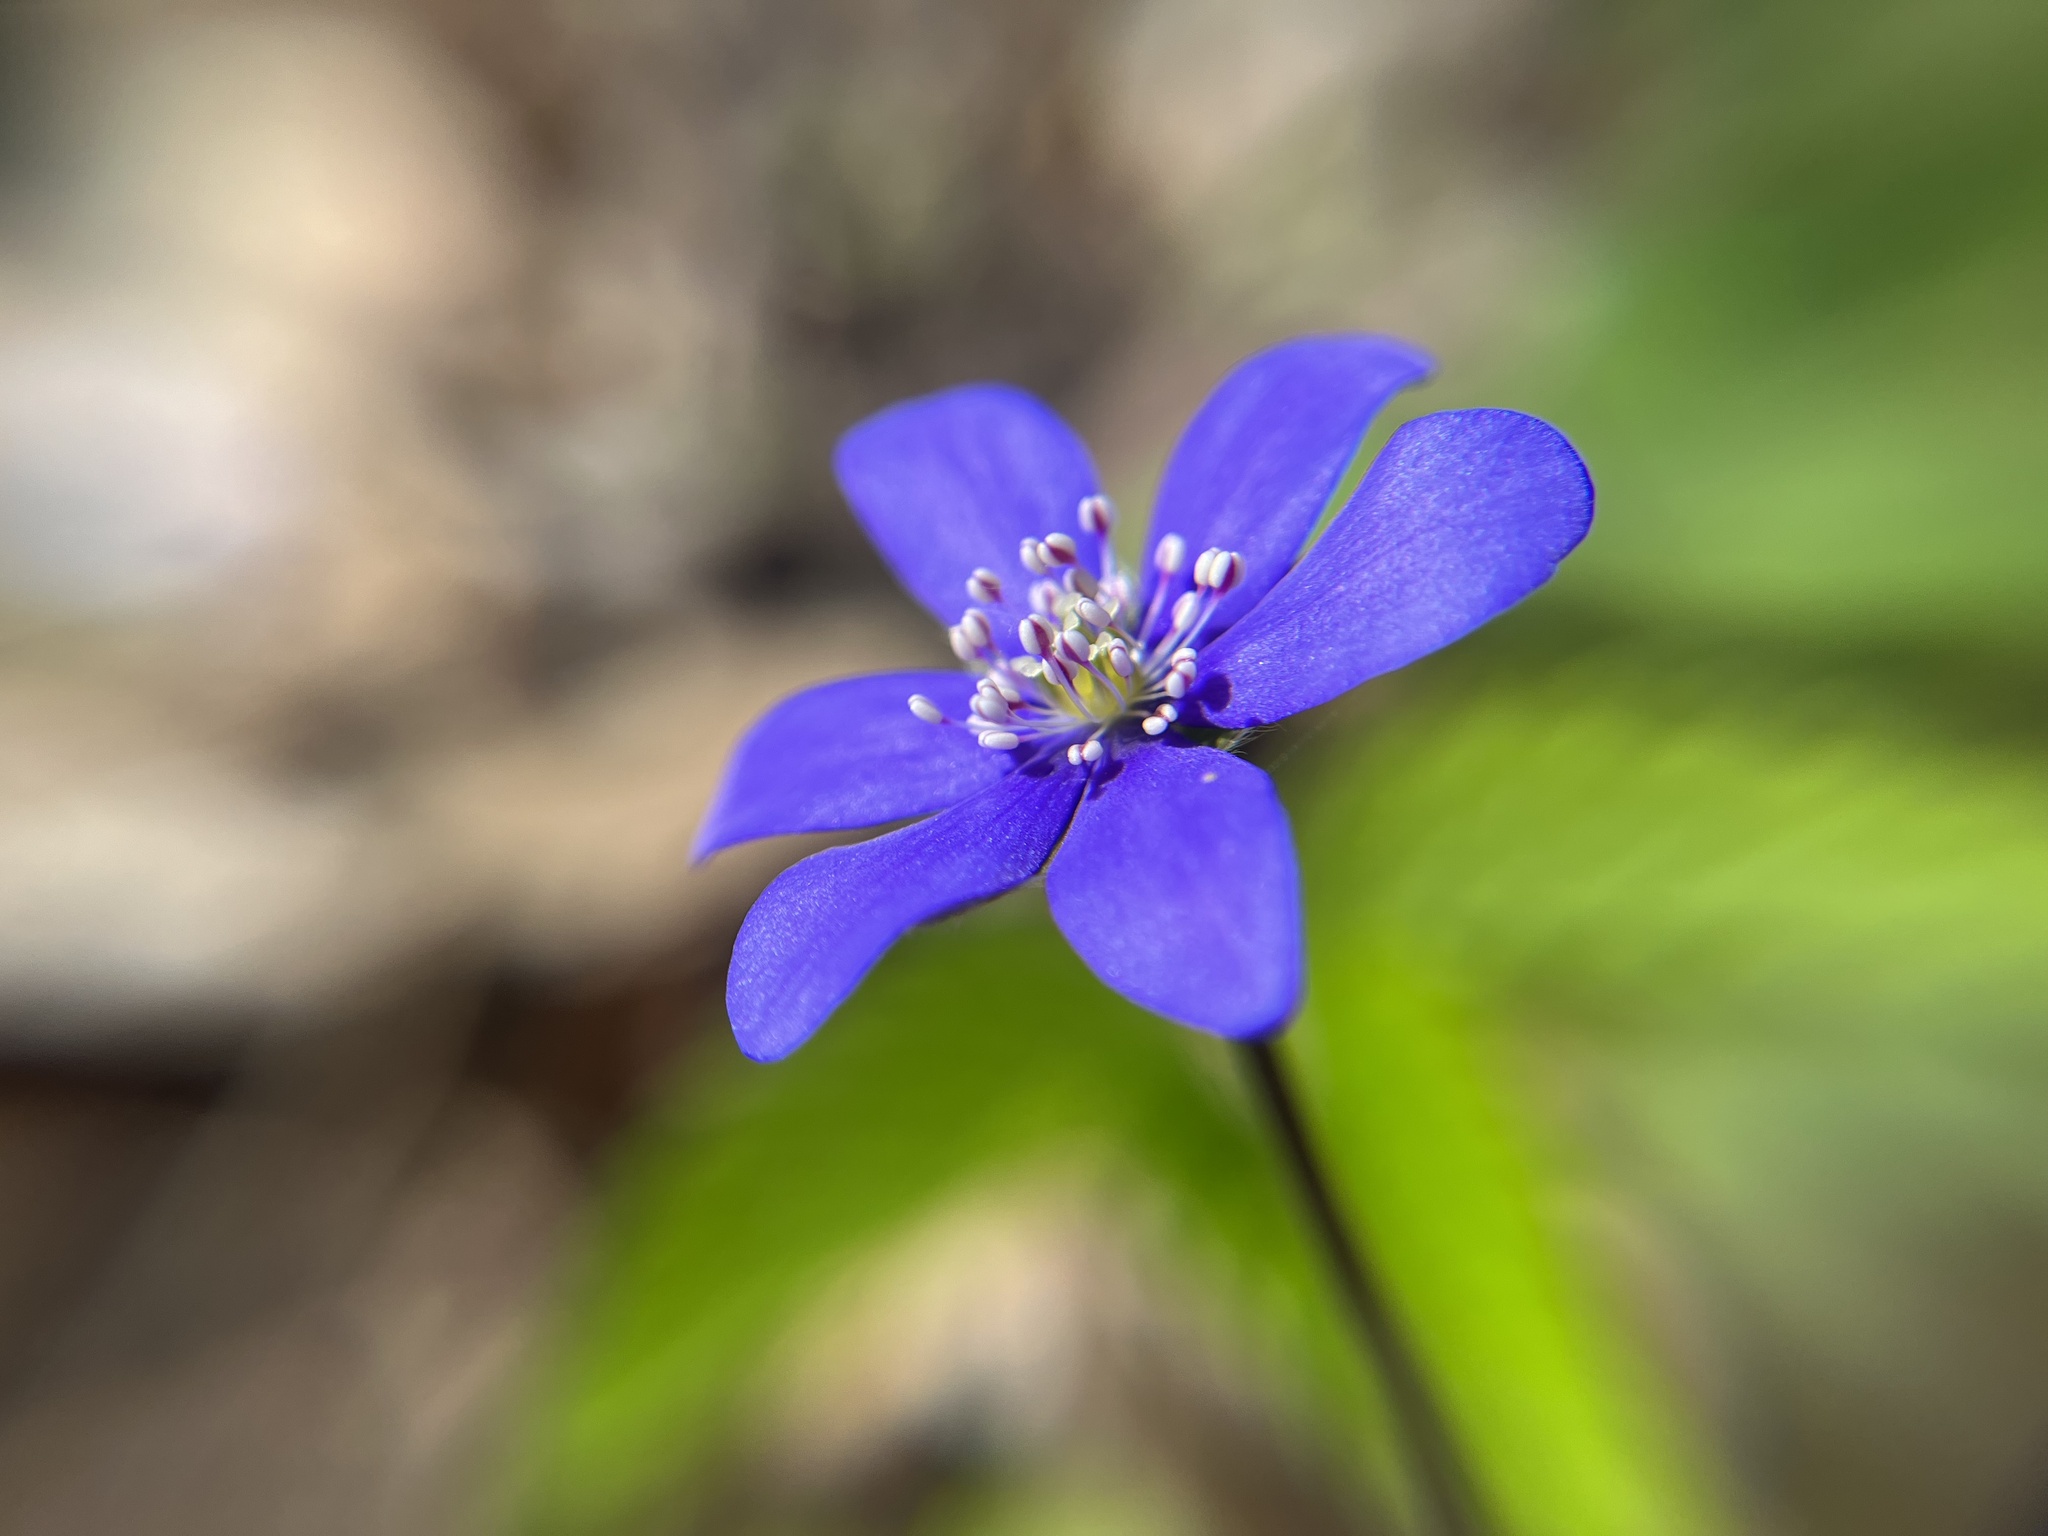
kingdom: Plantae
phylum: Tracheophyta
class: Magnoliopsida
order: Ranunculales
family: Ranunculaceae
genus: Hepatica
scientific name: Hepatica nobilis
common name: Liverleaf
